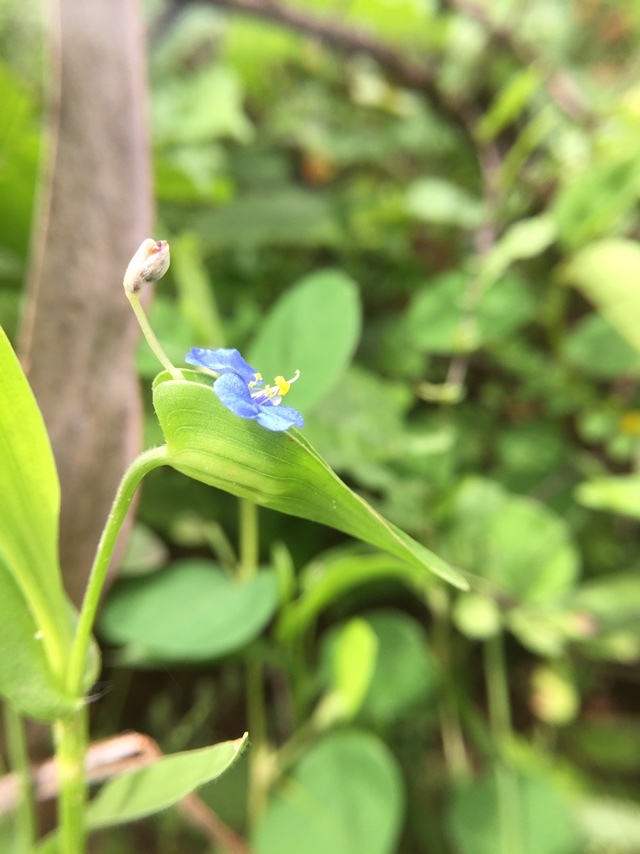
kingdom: Plantae
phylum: Tracheophyta
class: Liliopsida
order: Commelinales
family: Commelinaceae
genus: Commelina
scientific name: Commelina attenuata
